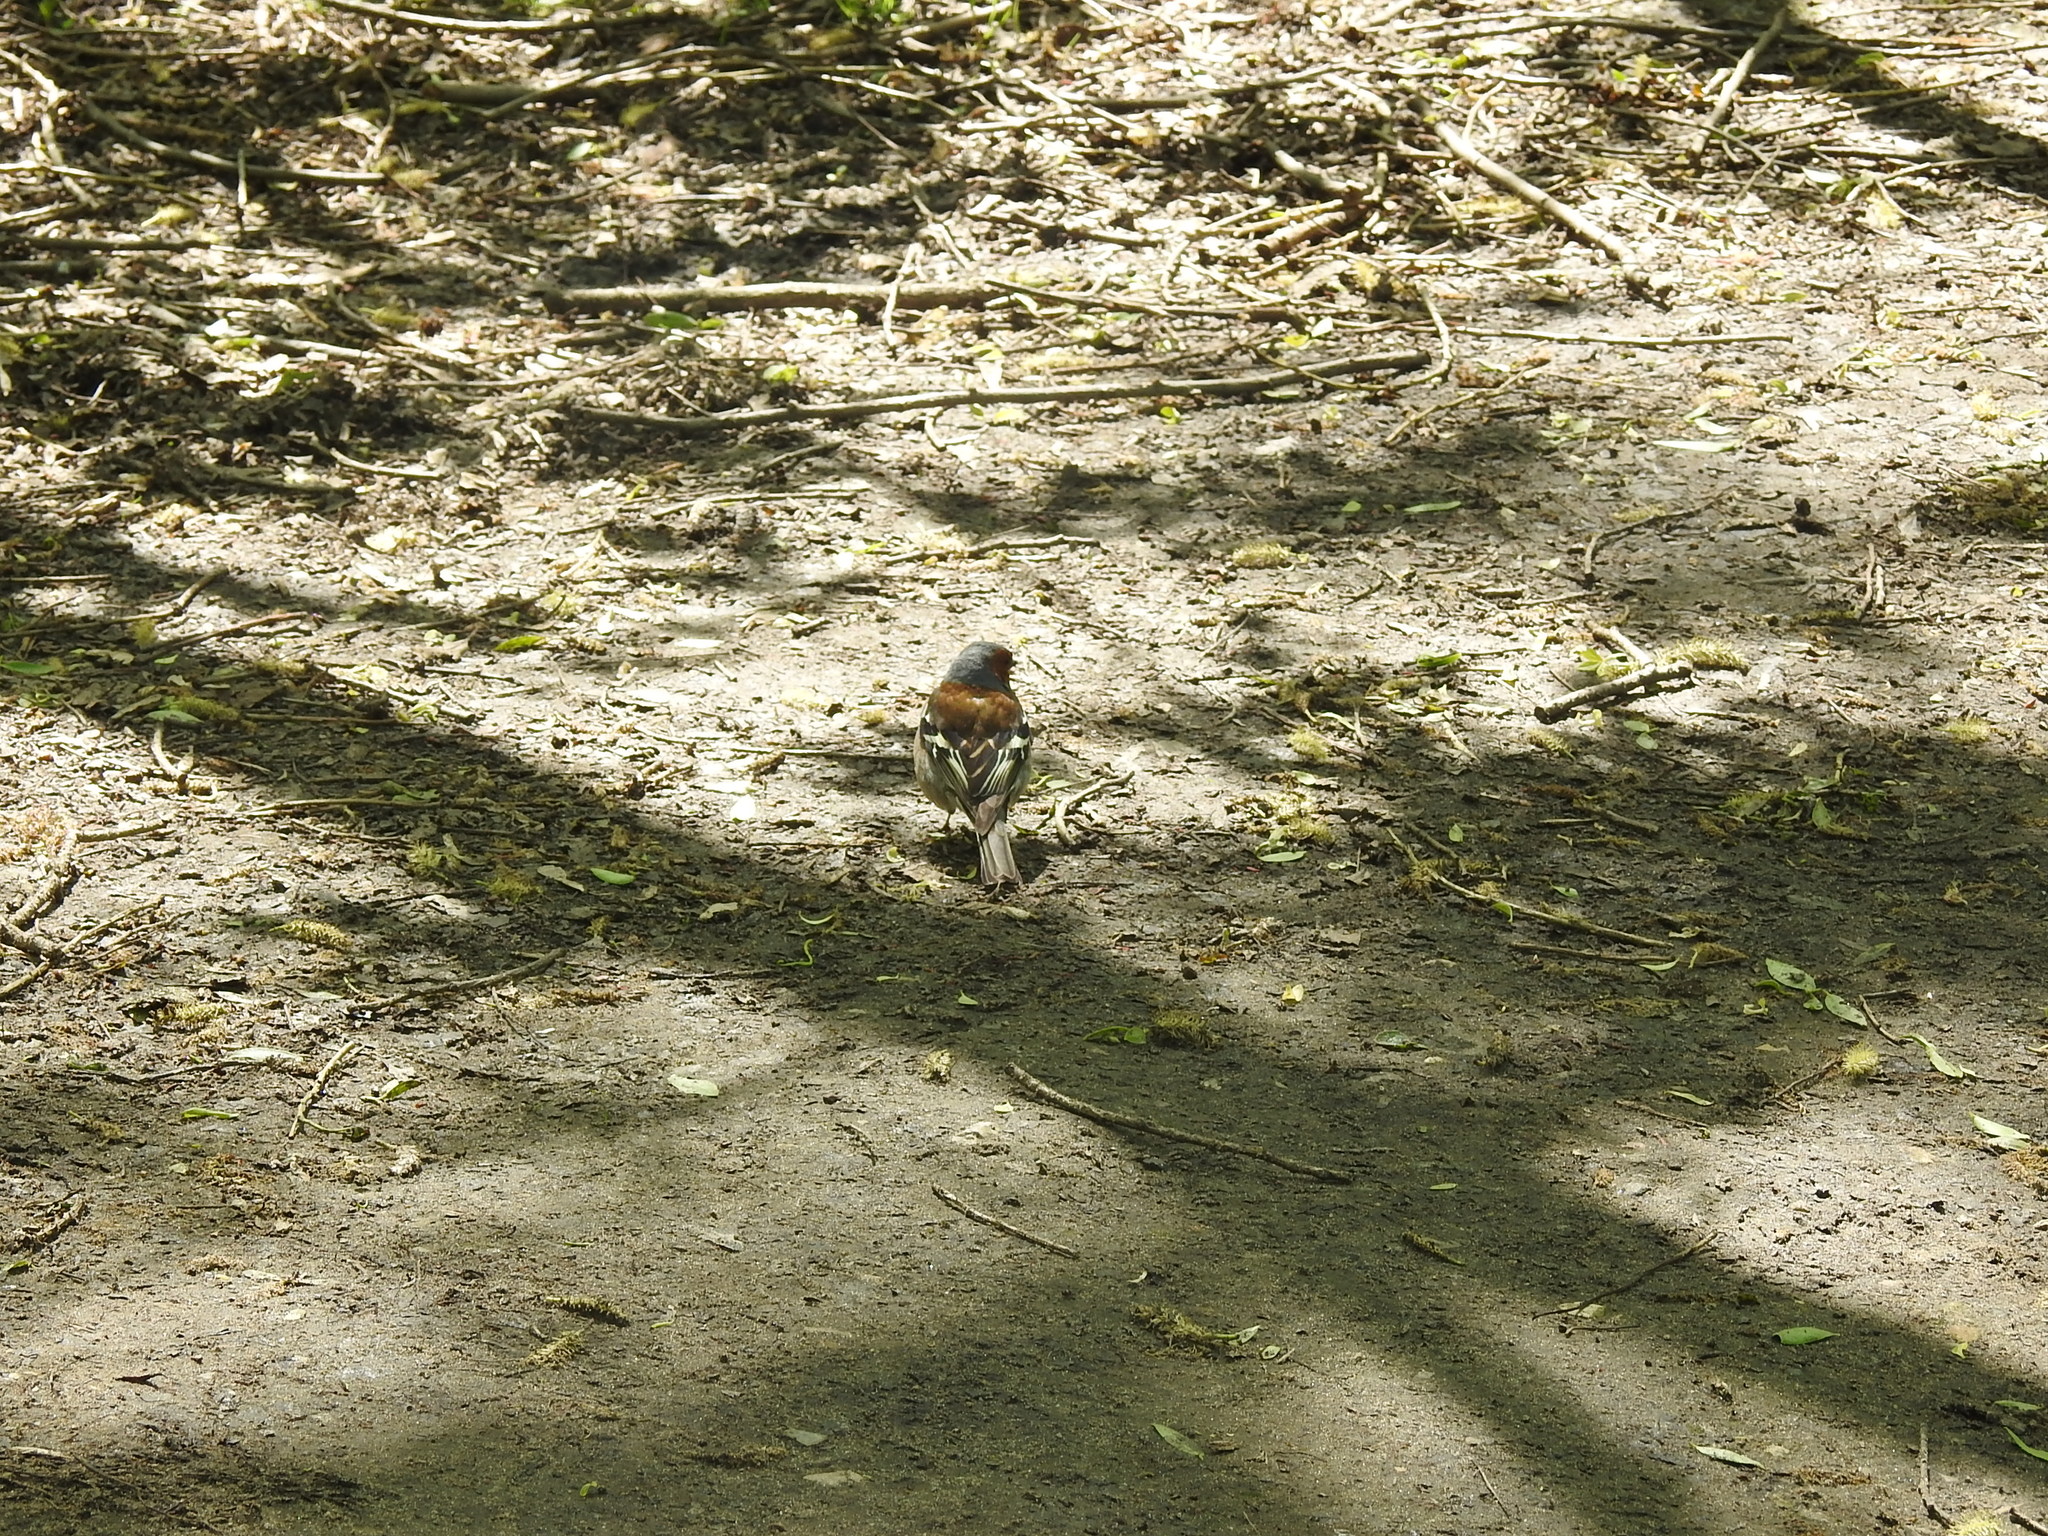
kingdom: Animalia
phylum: Chordata
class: Aves
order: Passeriformes
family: Fringillidae
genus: Fringilla
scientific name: Fringilla coelebs
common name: Common chaffinch
